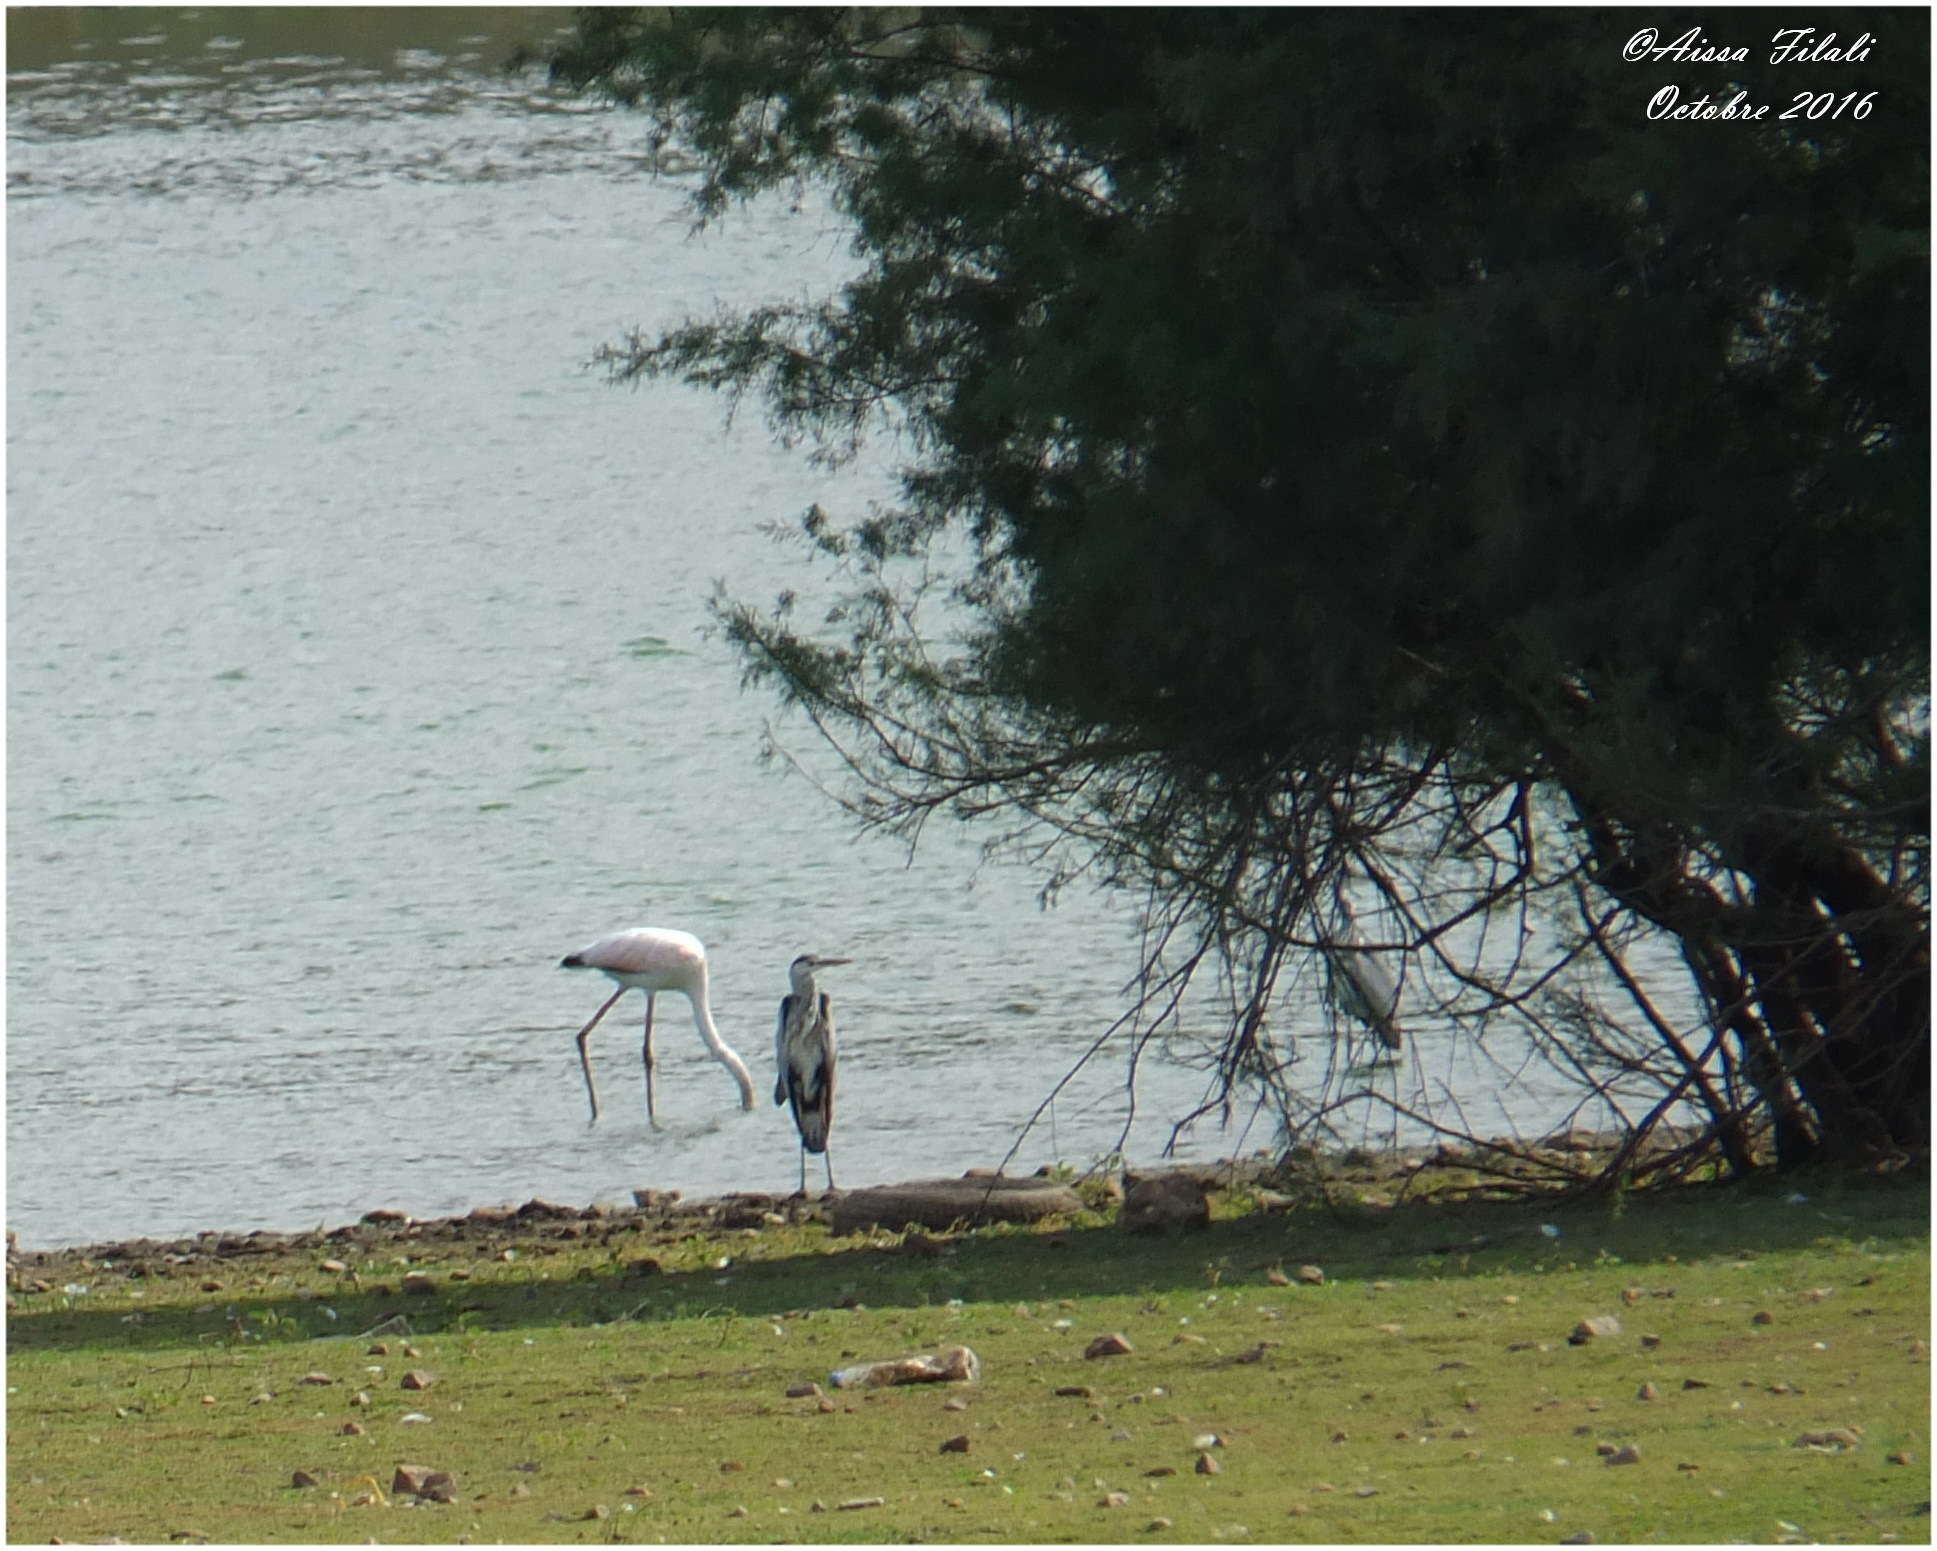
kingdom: Animalia
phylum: Chordata
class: Aves
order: Phoenicopteriformes
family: Phoenicopteridae
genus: Phoenicopterus
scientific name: Phoenicopterus roseus
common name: Greater flamingo
